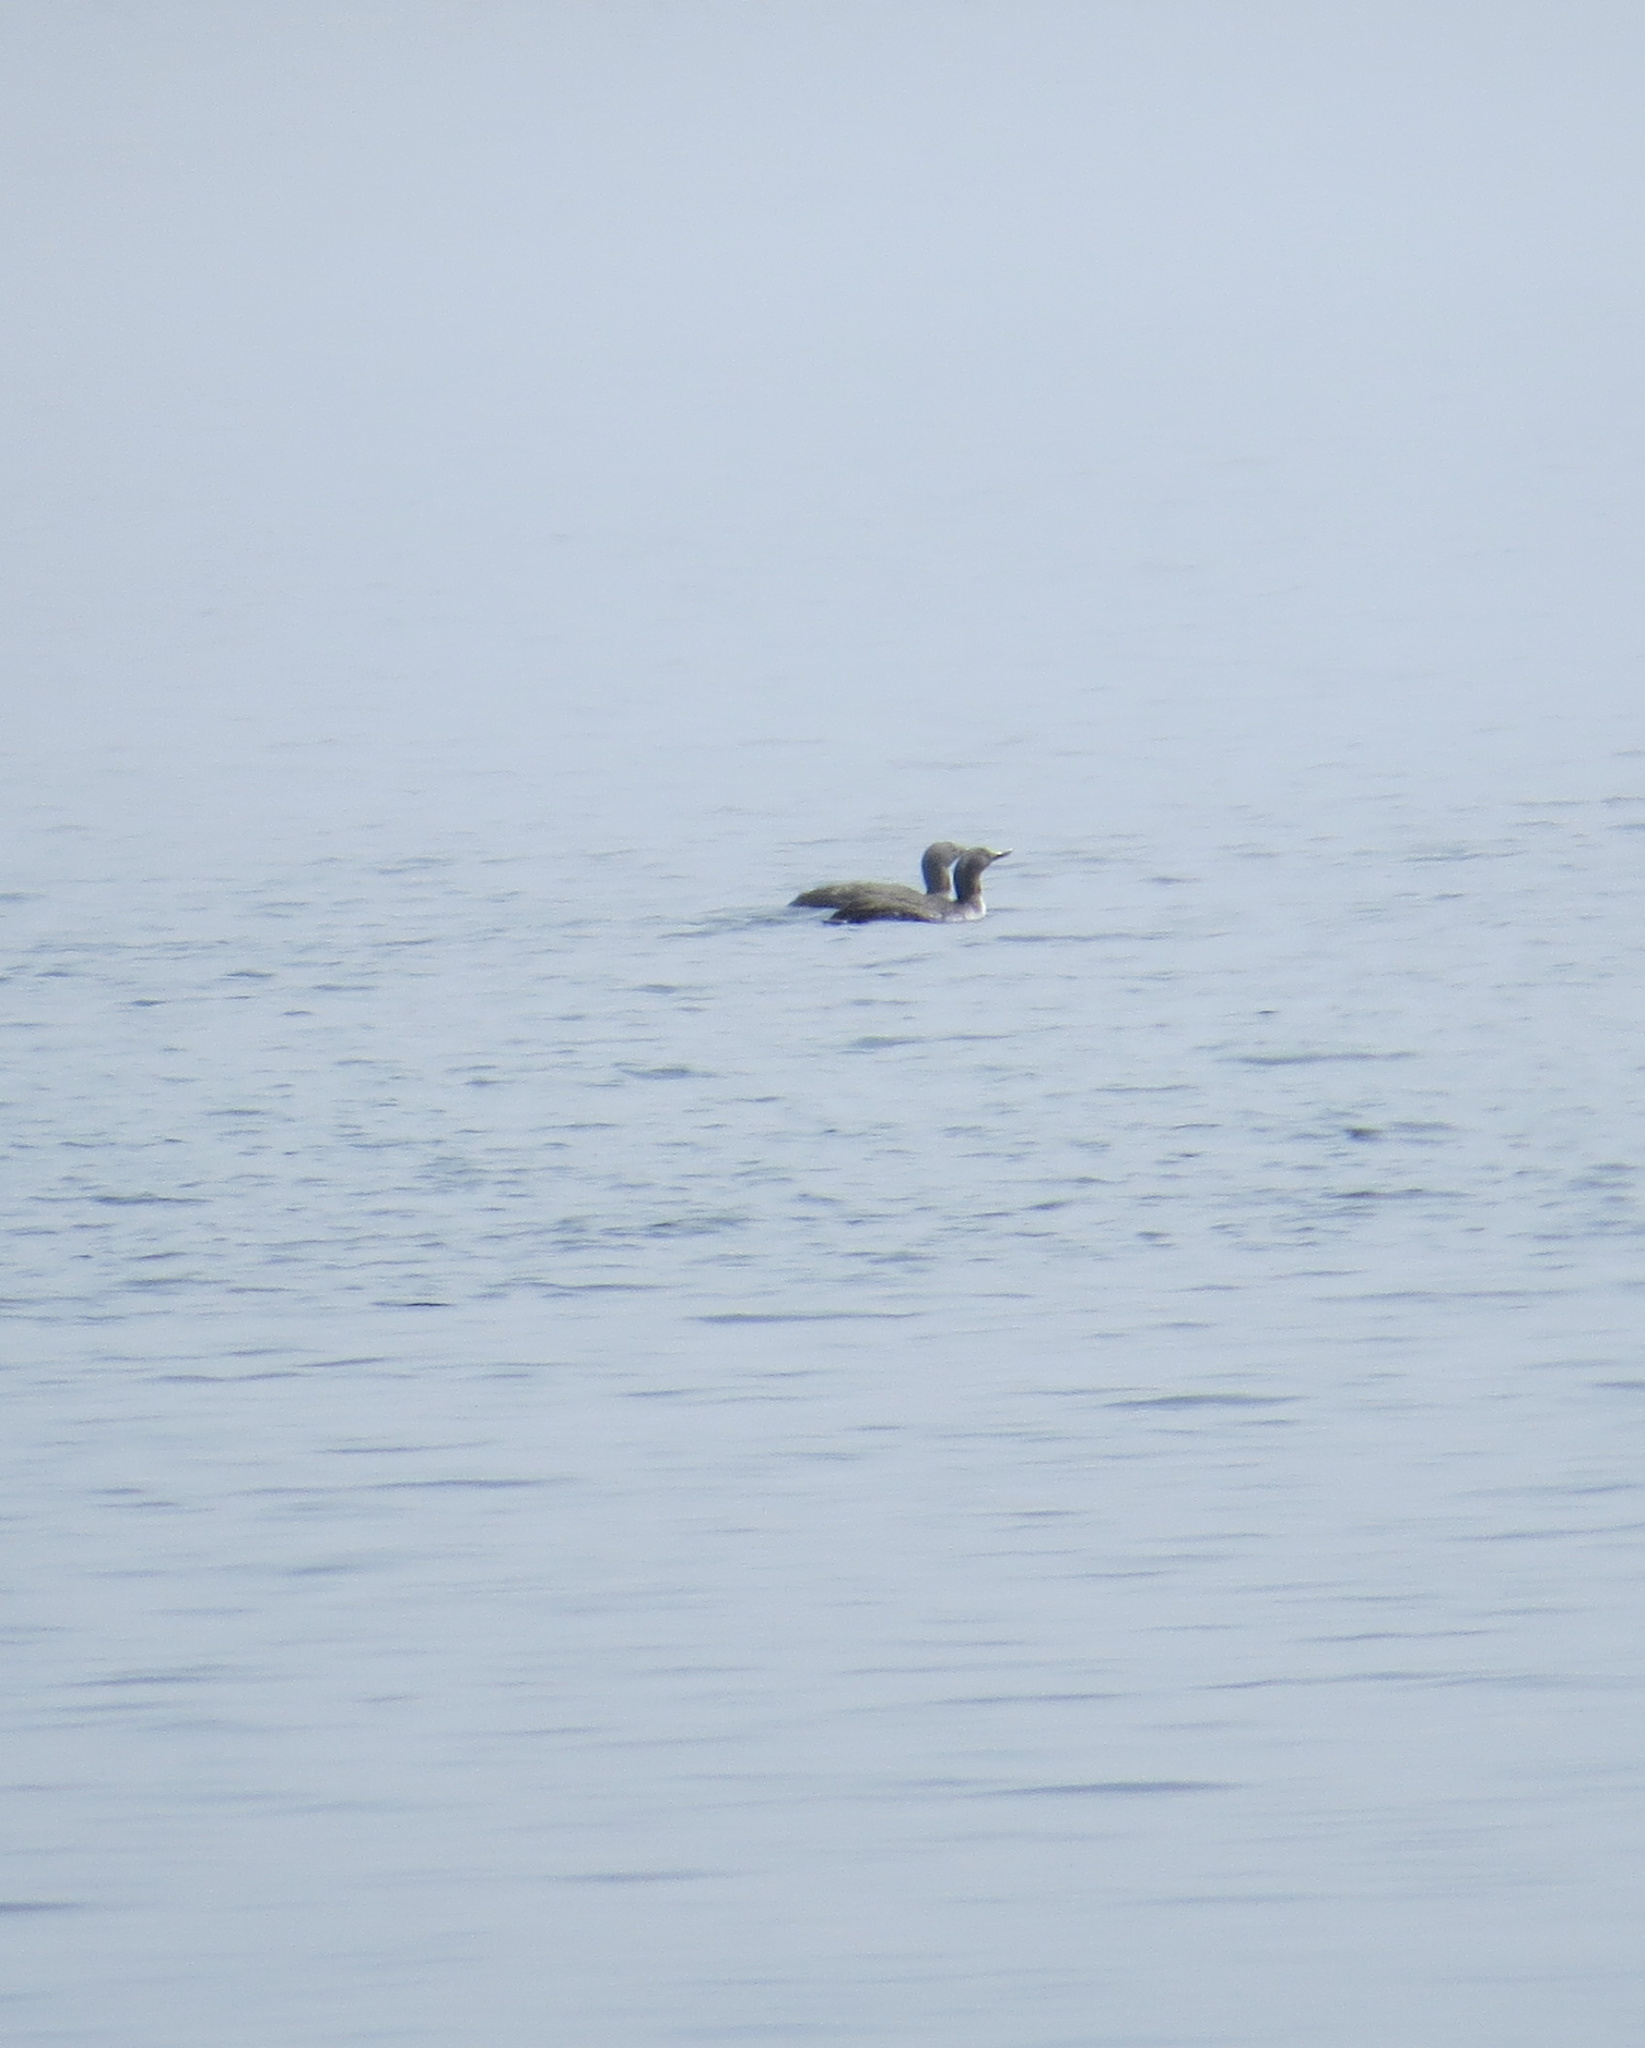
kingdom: Animalia
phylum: Chordata
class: Aves
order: Gaviiformes
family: Gaviidae
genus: Gavia
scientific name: Gavia stellata
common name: Red-throated loon
